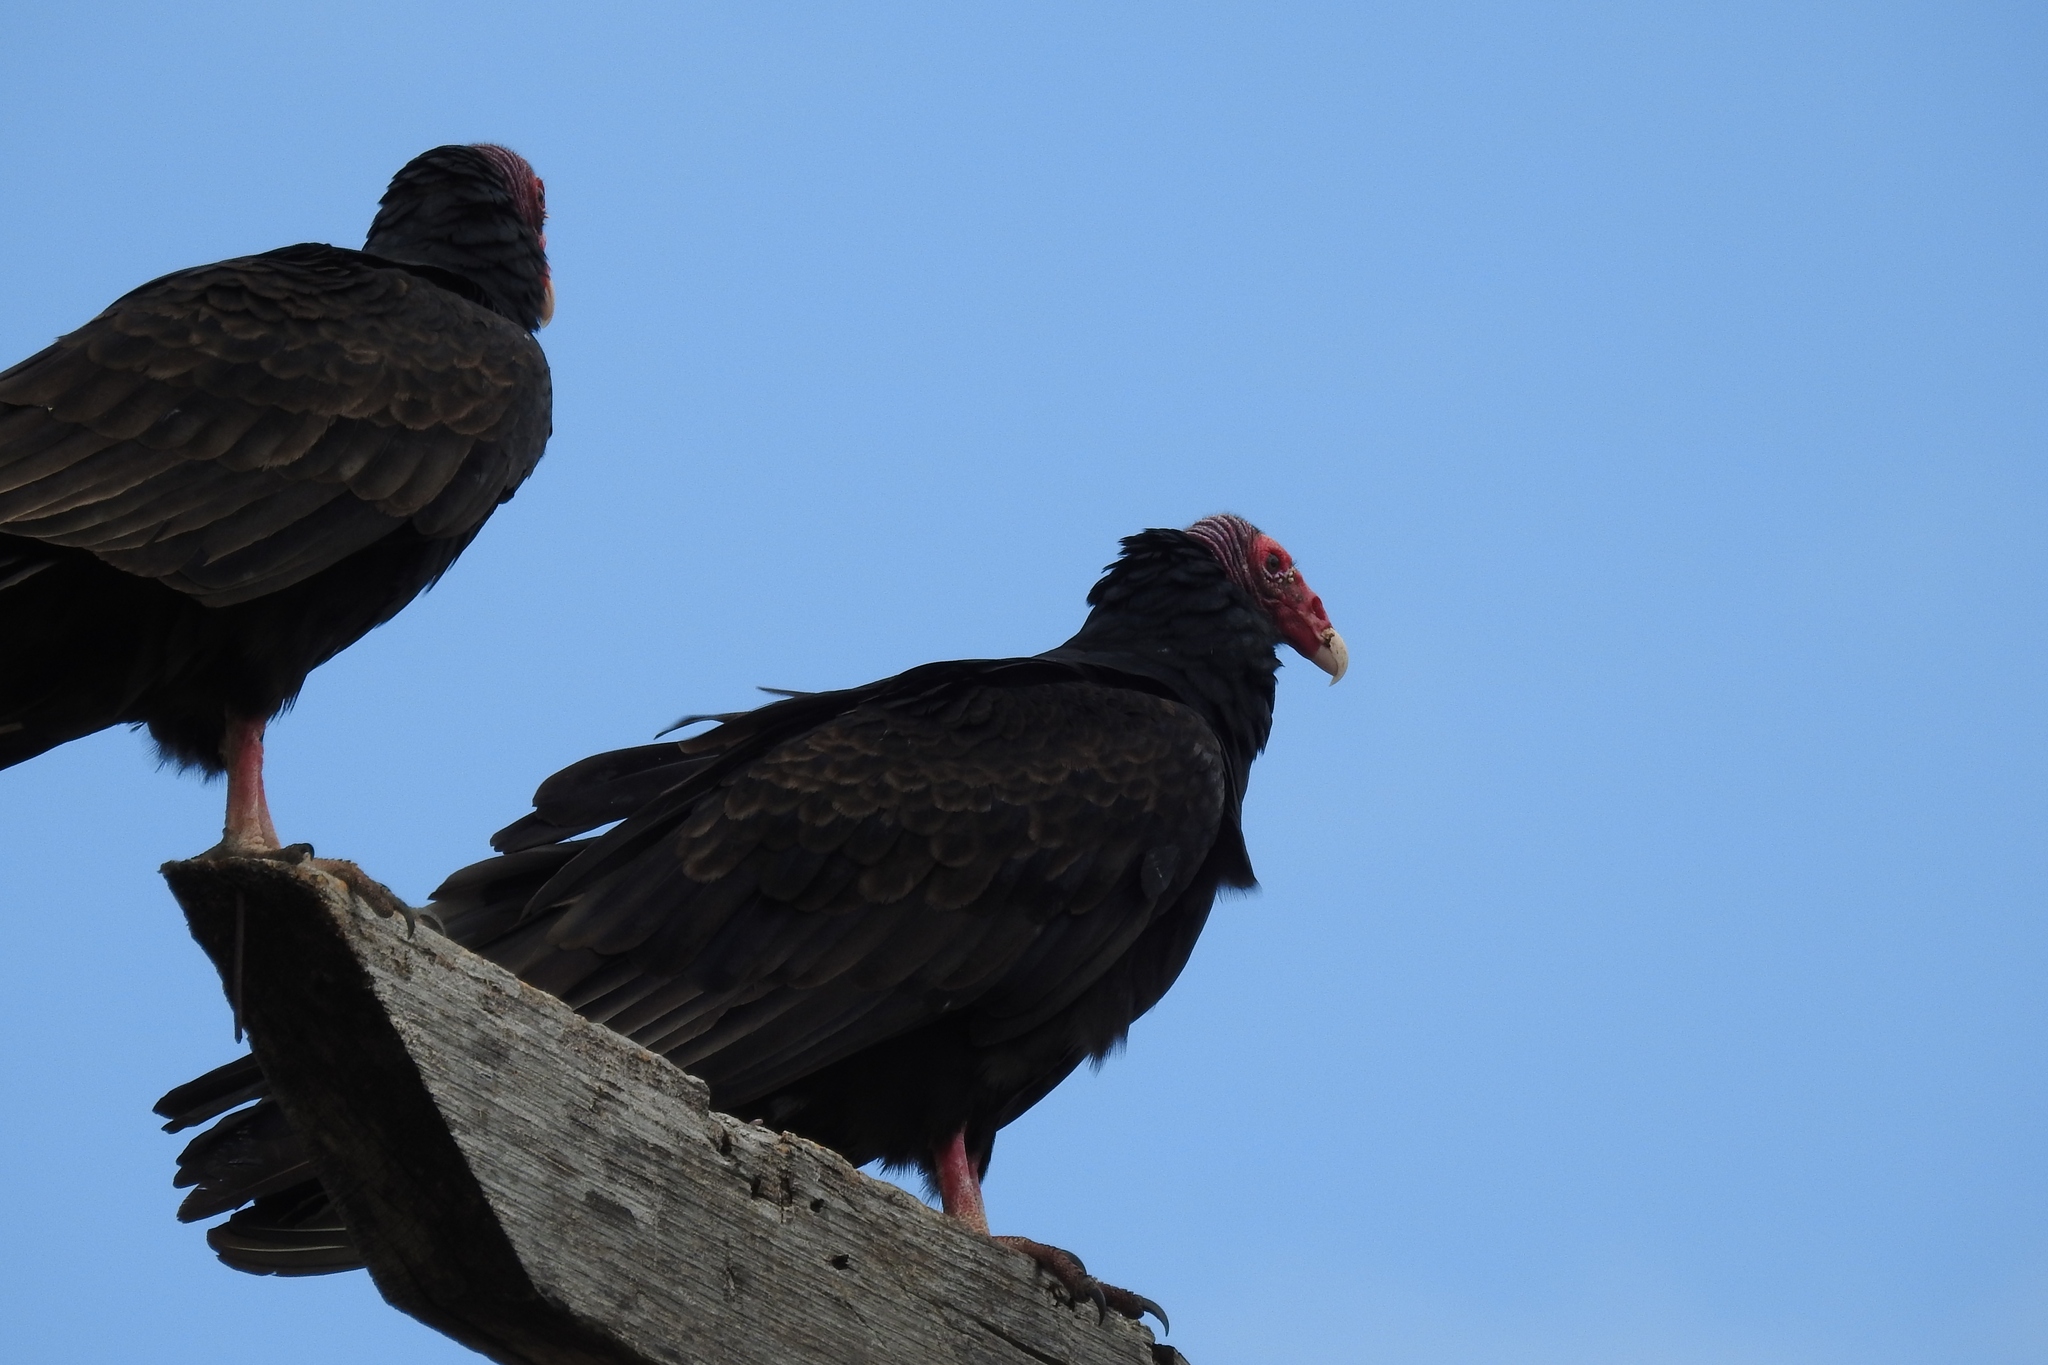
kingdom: Animalia
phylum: Chordata
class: Aves
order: Accipitriformes
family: Cathartidae
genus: Cathartes
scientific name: Cathartes aura
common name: Turkey vulture
